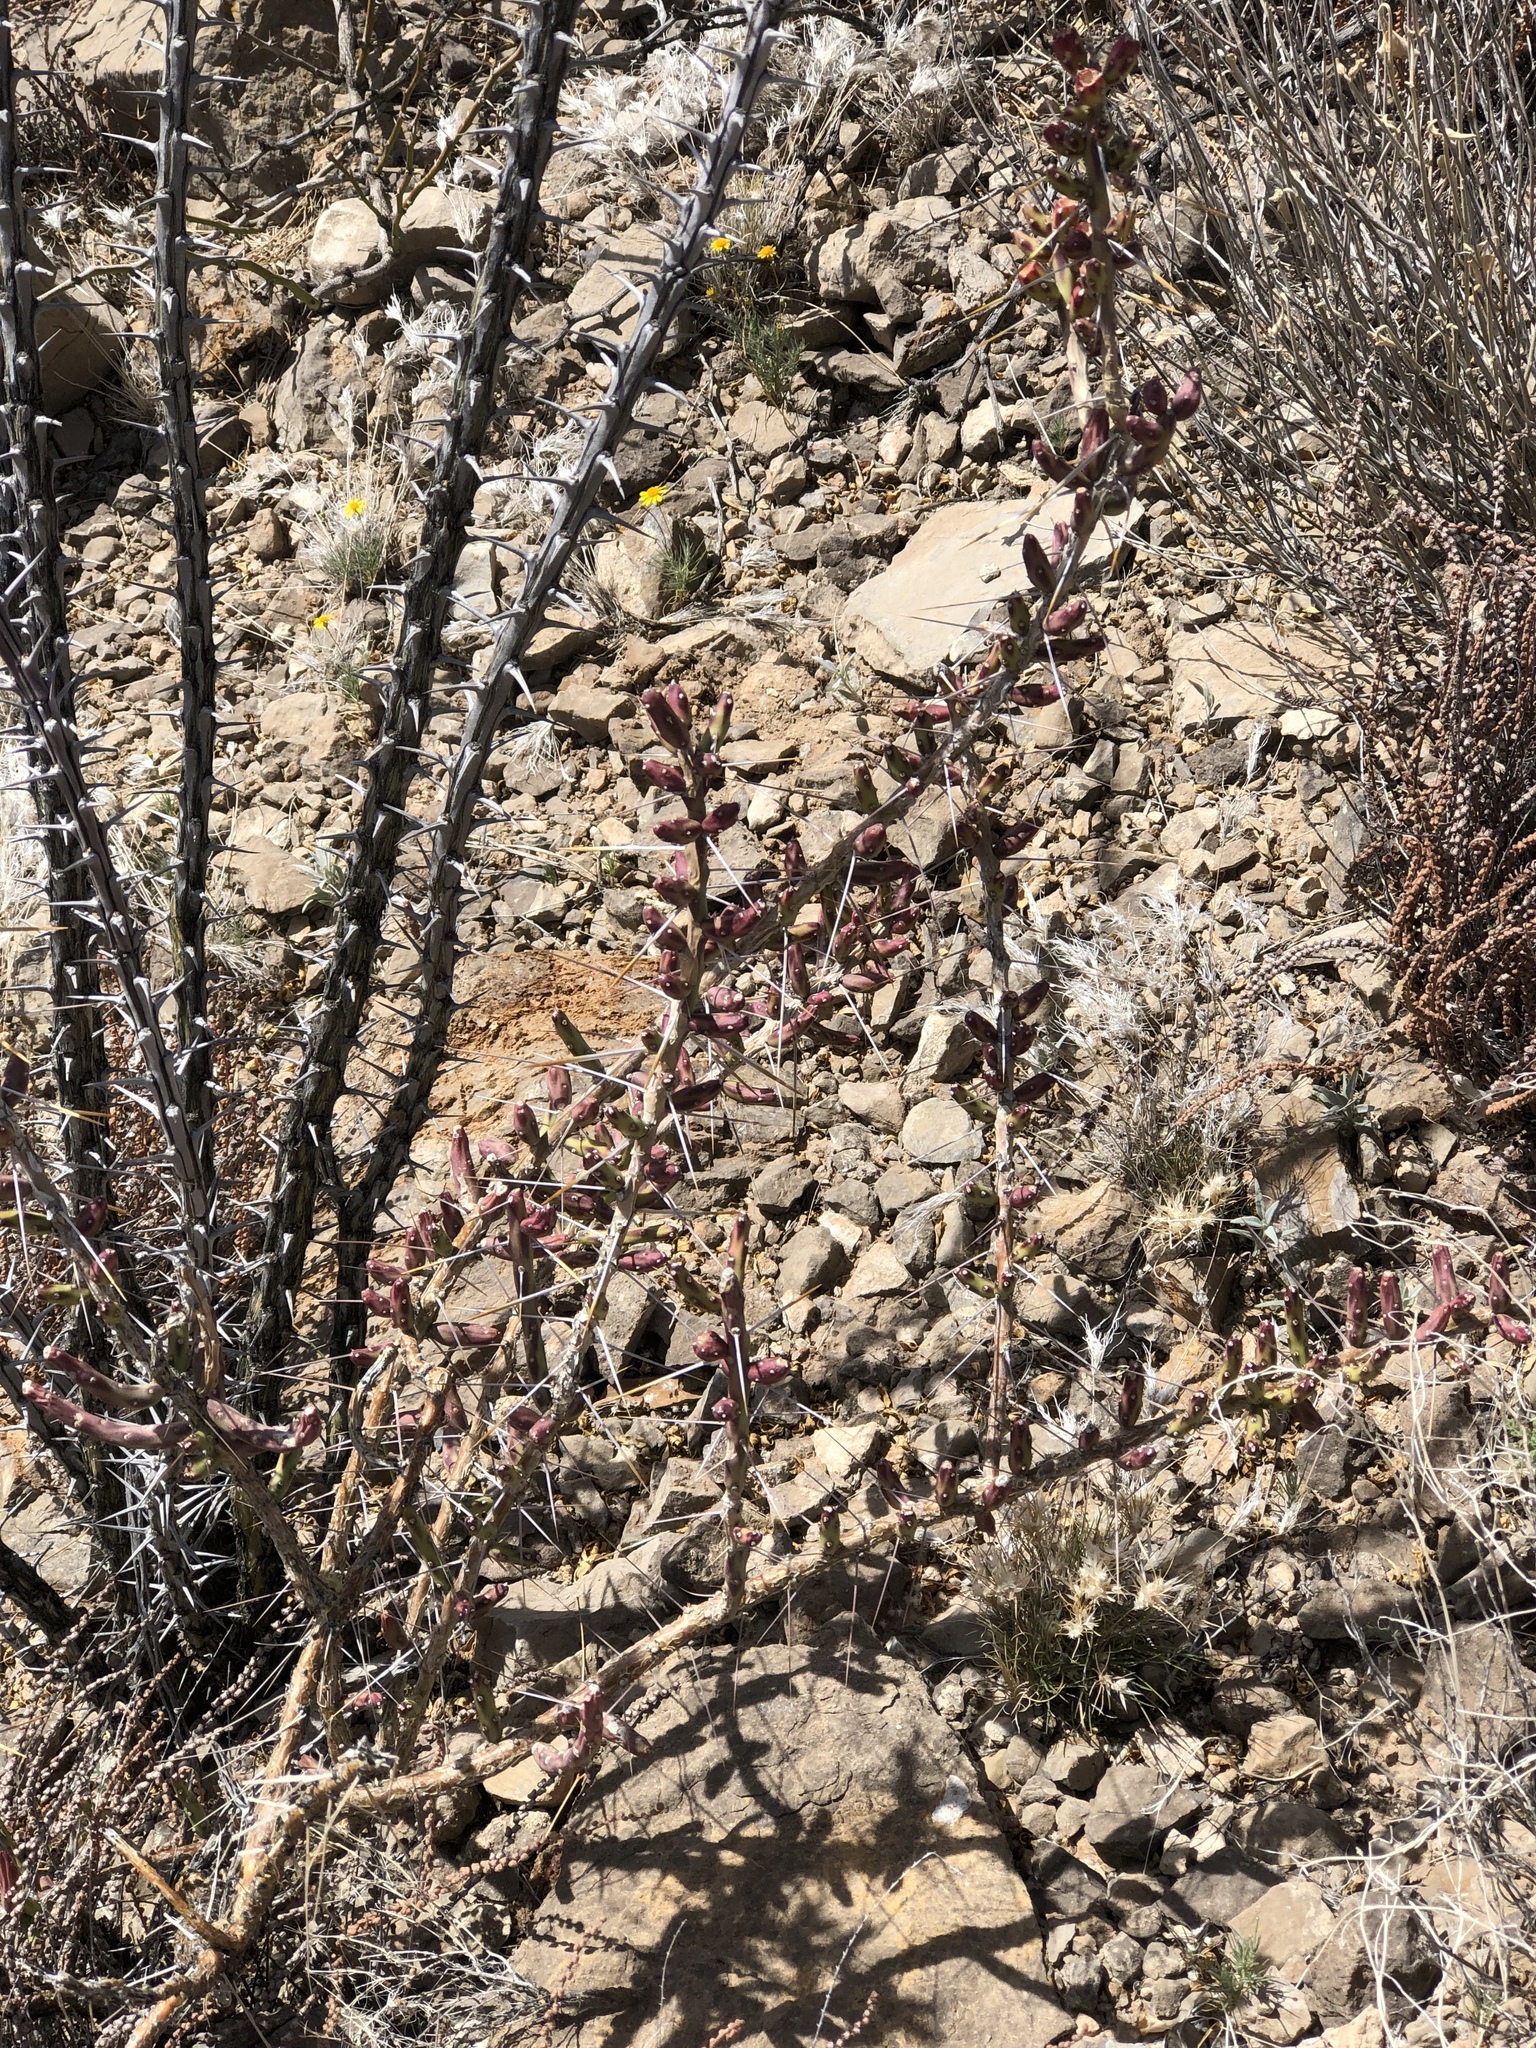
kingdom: Plantae
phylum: Tracheophyta
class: Magnoliopsida
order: Caryophyllales
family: Cactaceae
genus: Cylindropuntia
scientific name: Cylindropuntia leptocaulis
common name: Christmas cactus
